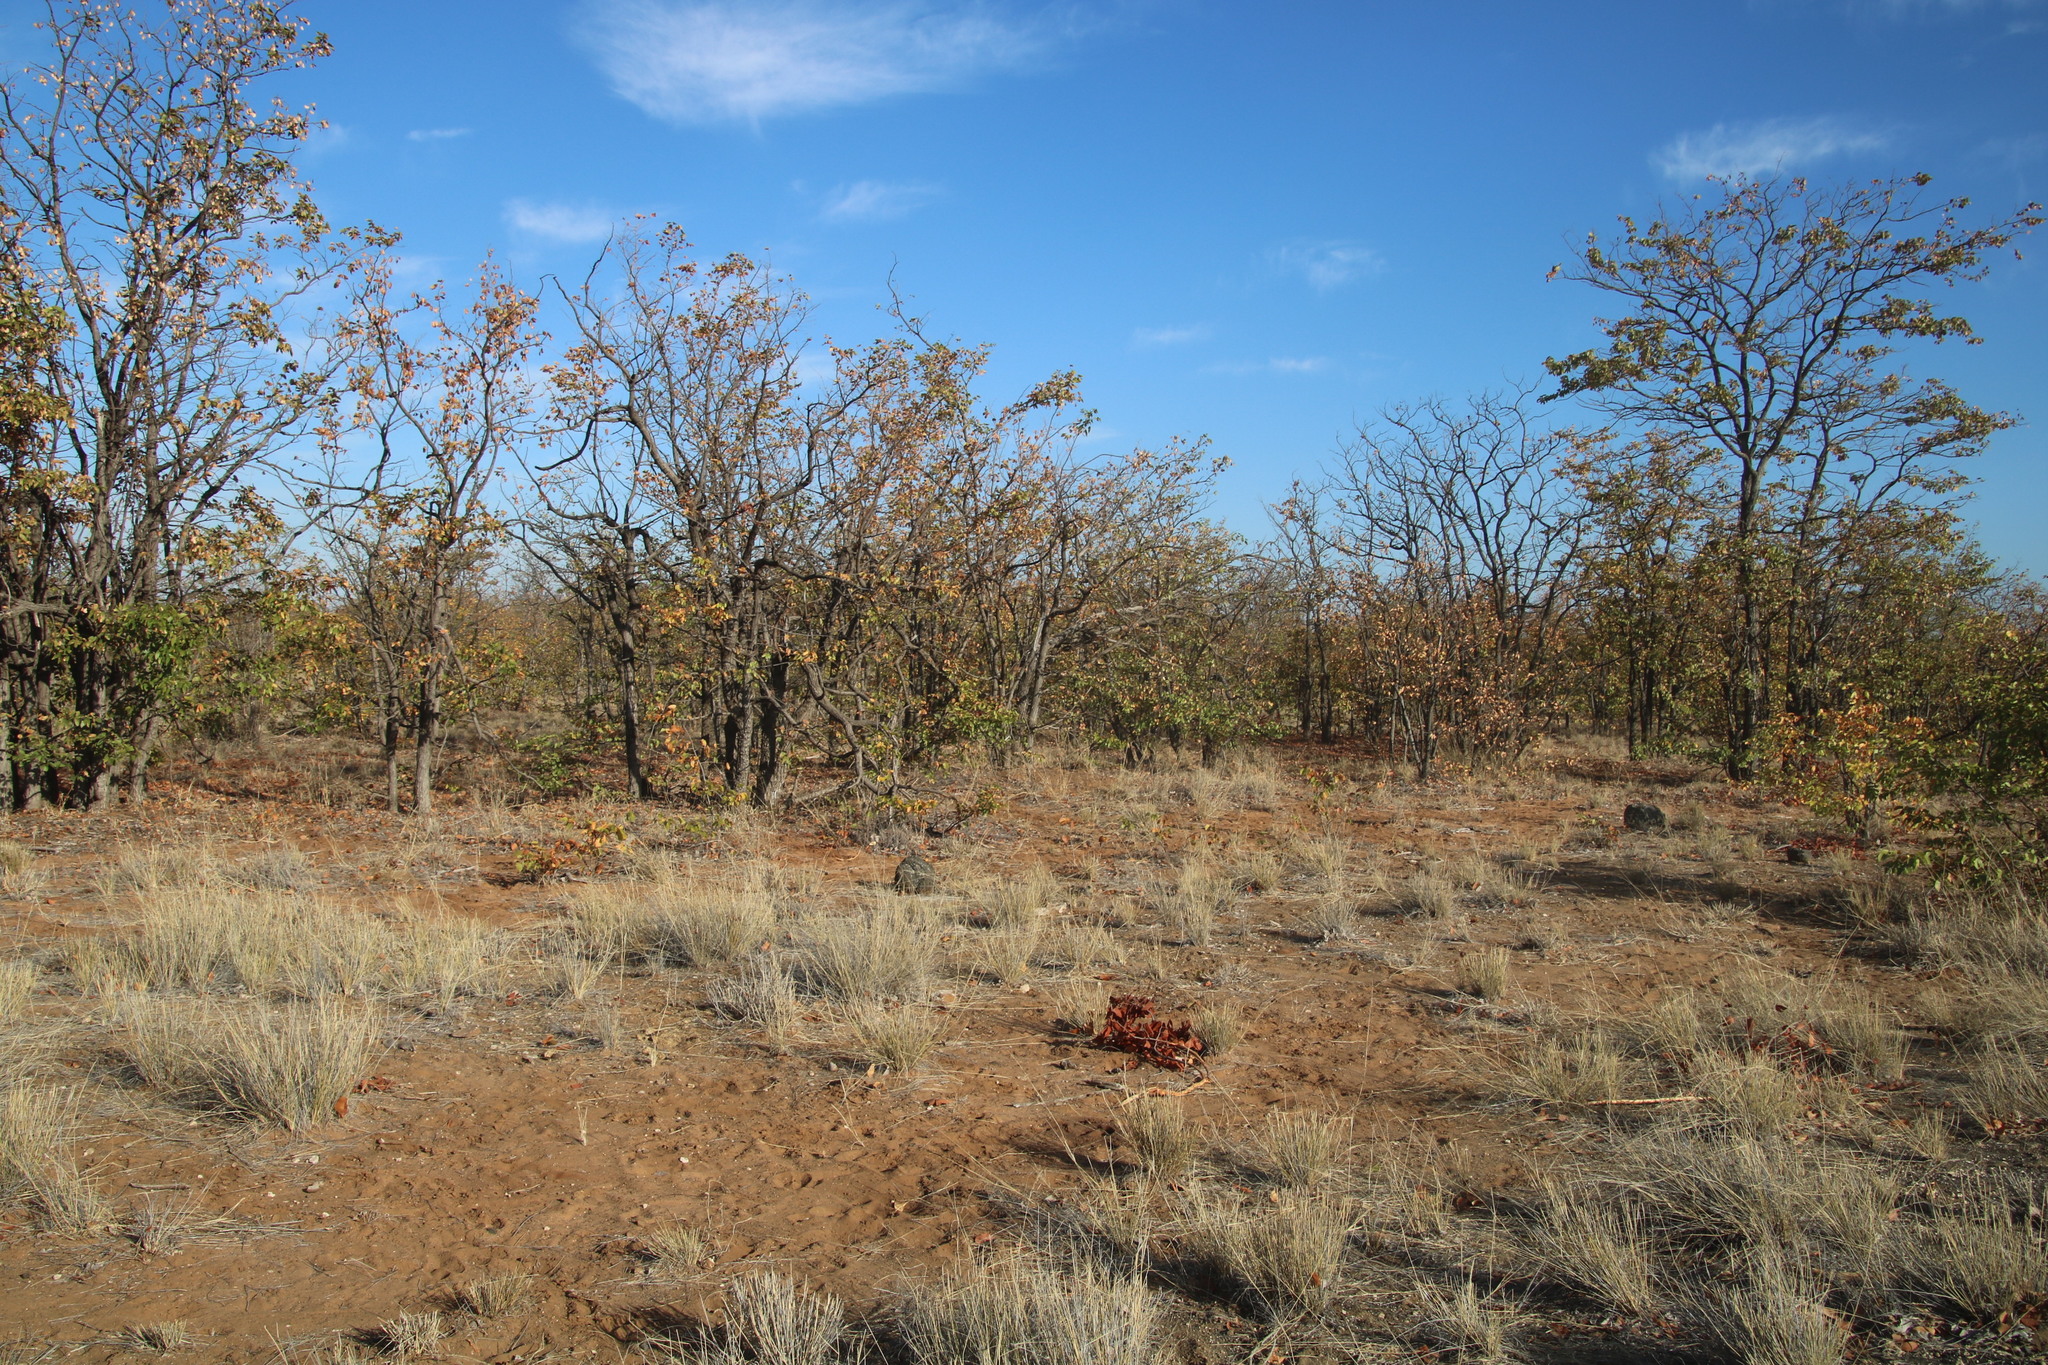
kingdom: Plantae
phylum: Tracheophyta
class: Magnoliopsida
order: Fabales
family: Fabaceae
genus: Colophospermum
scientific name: Colophospermum mopane
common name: Mopane
